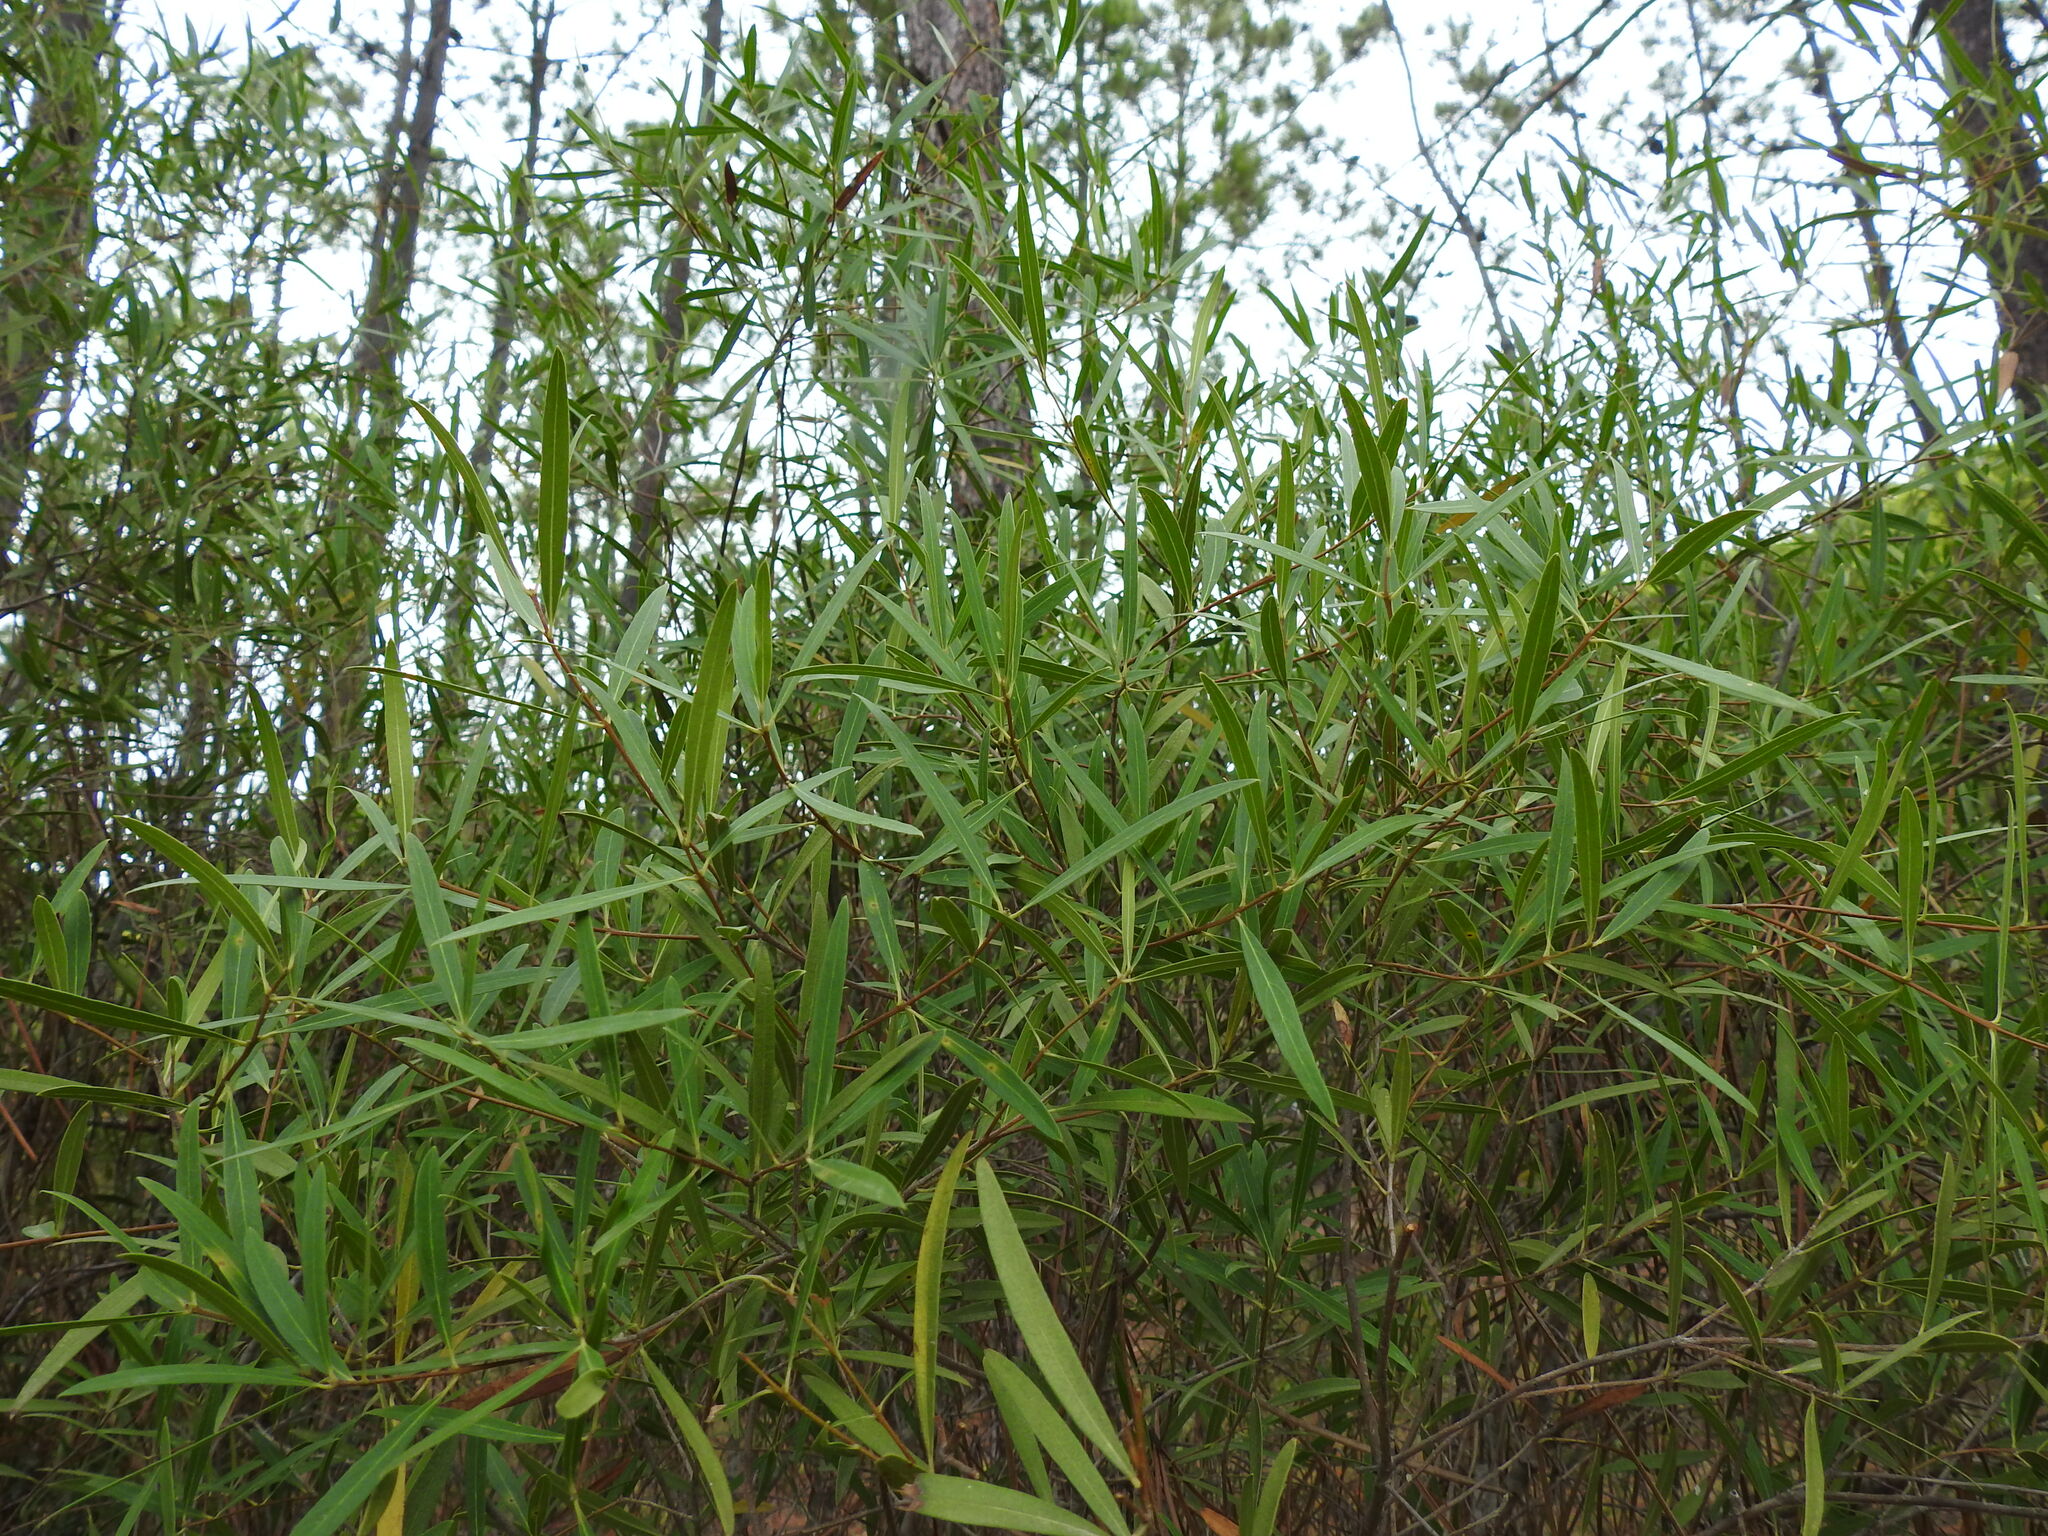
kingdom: Plantae
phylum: Tracheophyta
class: Magnoliopsida
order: Lamiales
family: Oleaceae
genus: Phillyrea
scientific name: Phillyrea angustifolia
